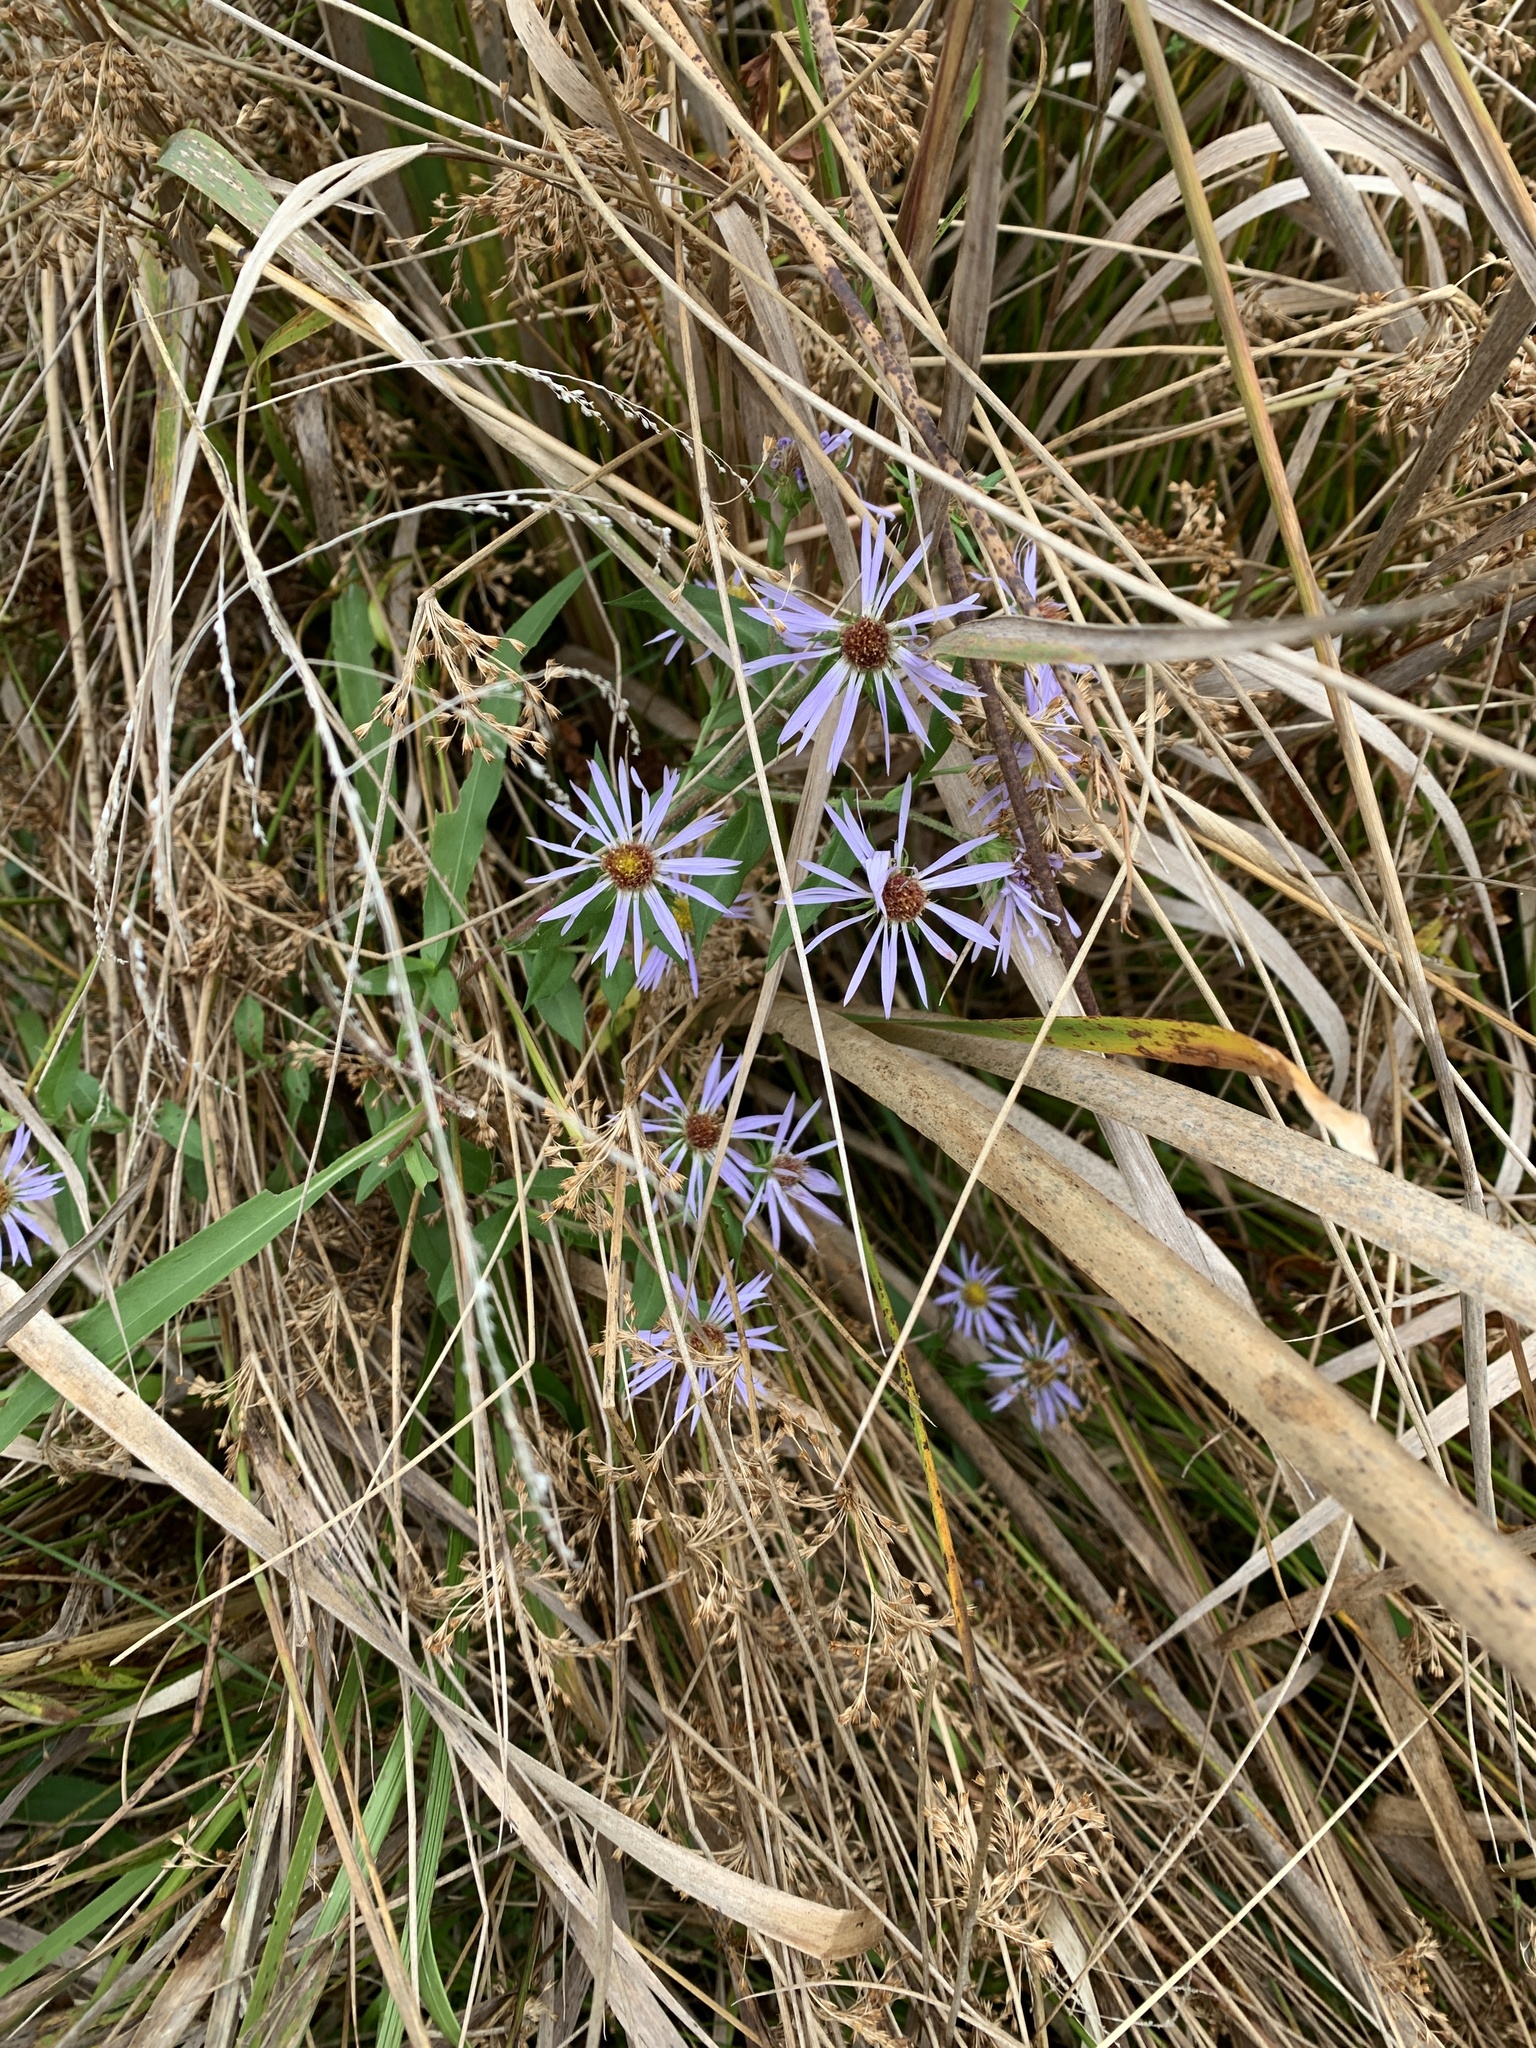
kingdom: Plantae
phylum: Tracheophyta
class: Magnoliopsida
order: Asterales
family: Asteraceae
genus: Symphyotrichum
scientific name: Symphyotrichum puniceum
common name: Bog aster
